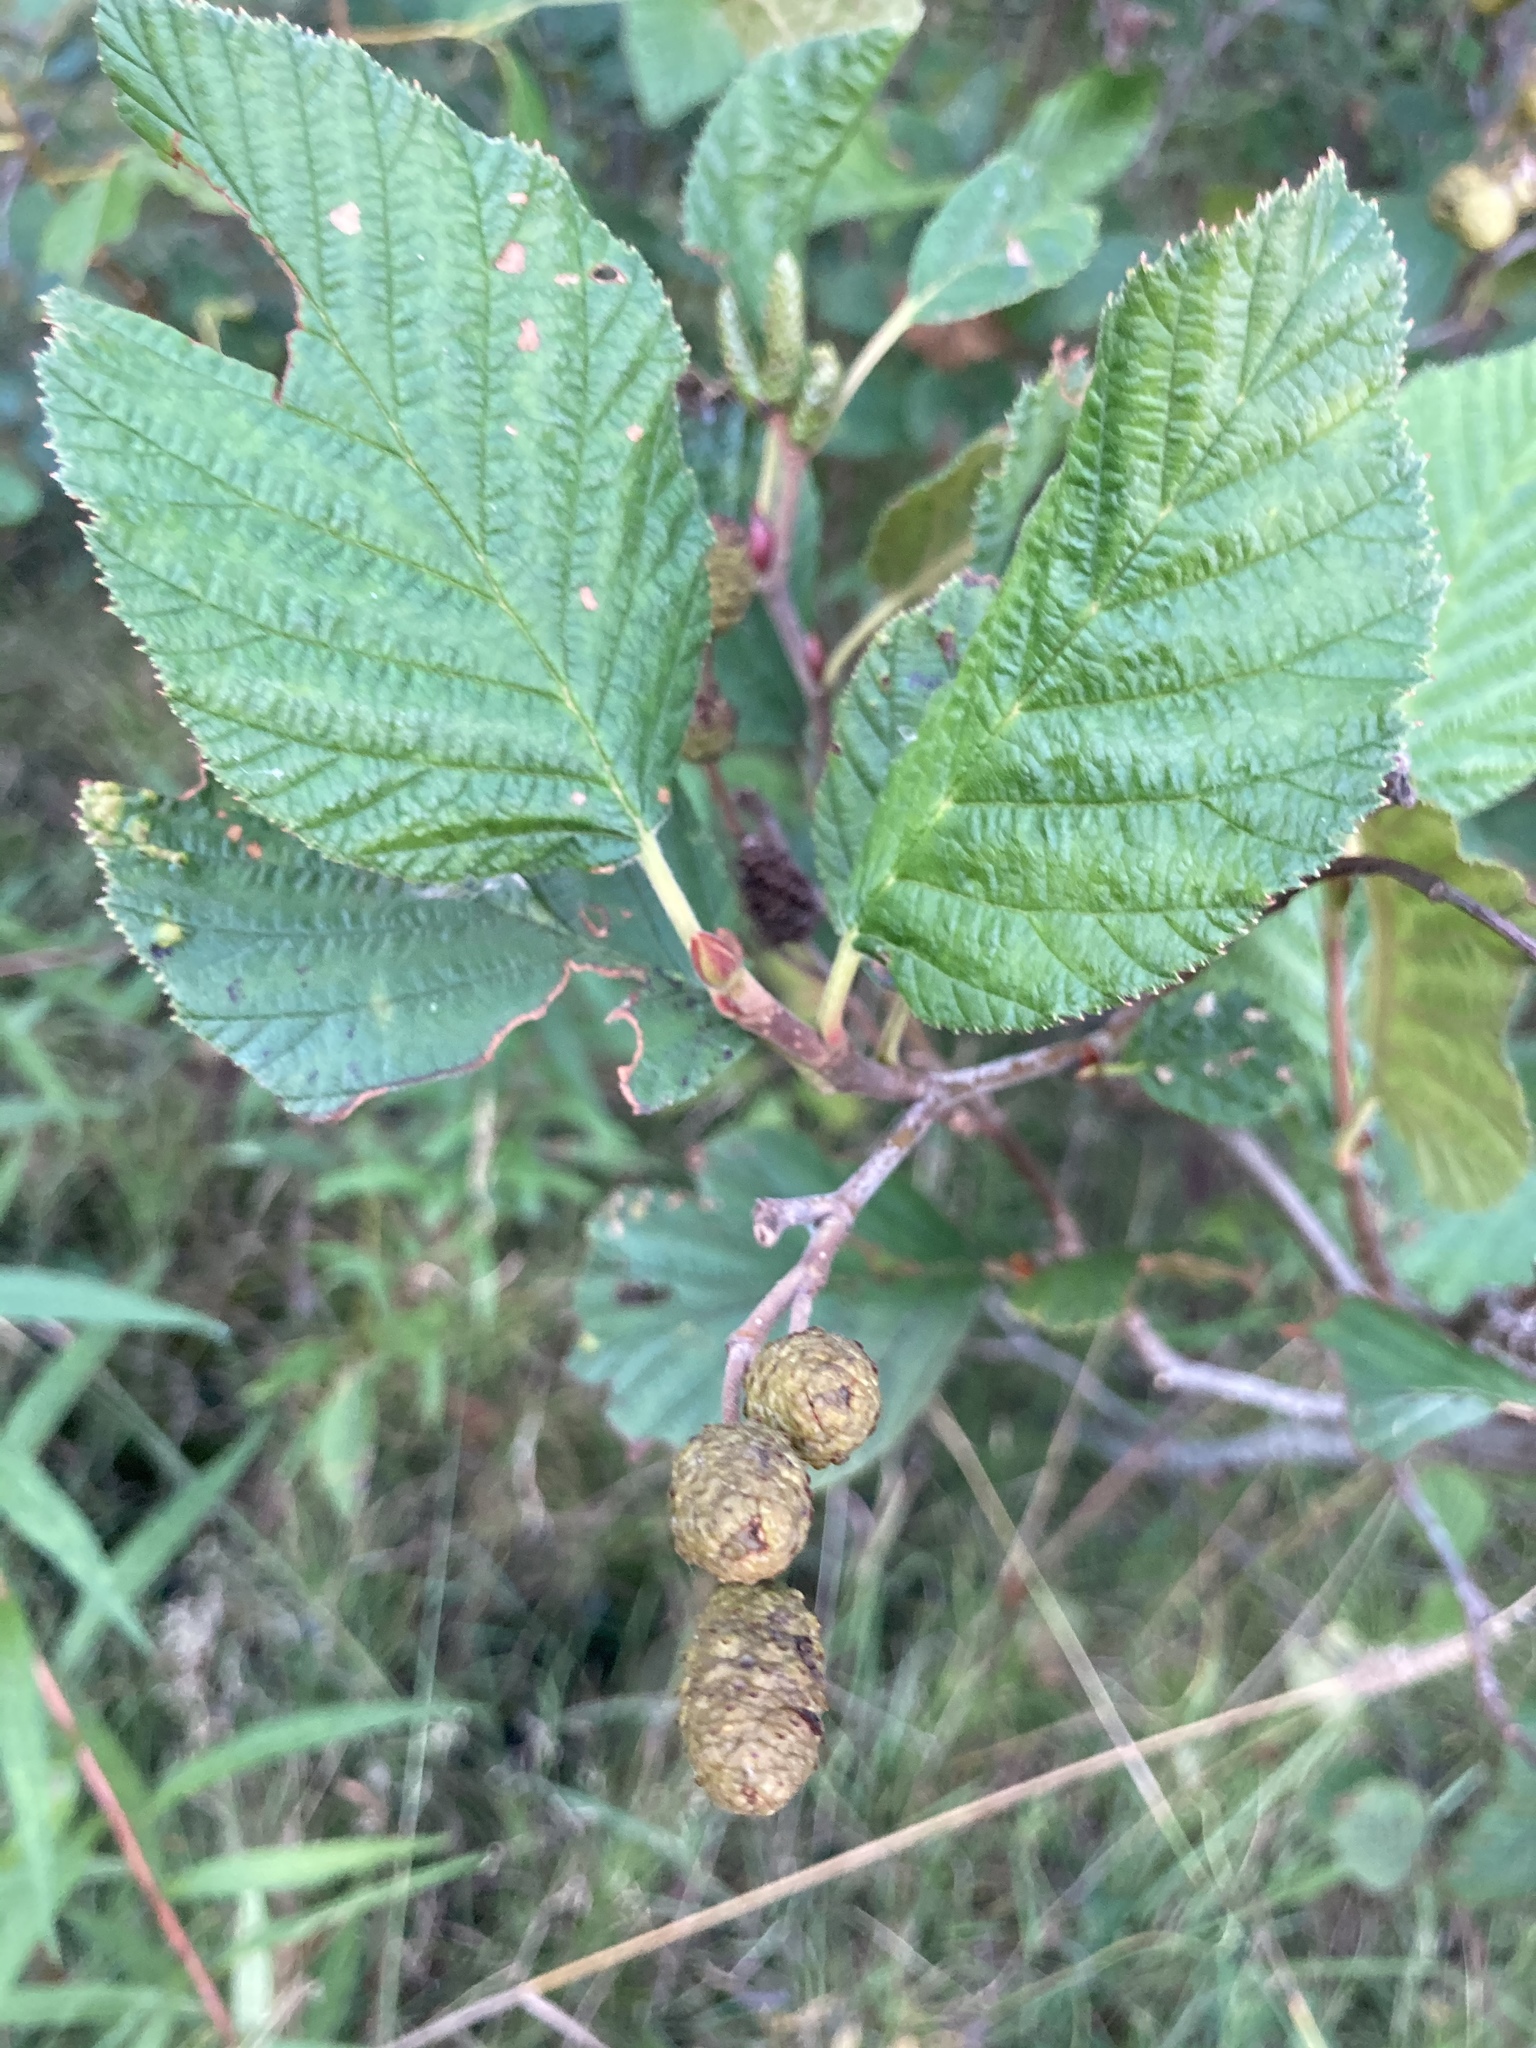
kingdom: Plantae
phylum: Tracheophyta
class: Magnoliopsida
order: Fagales
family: Betulaceae
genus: Alnus
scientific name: Alnus alnobetula
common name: Green alder
